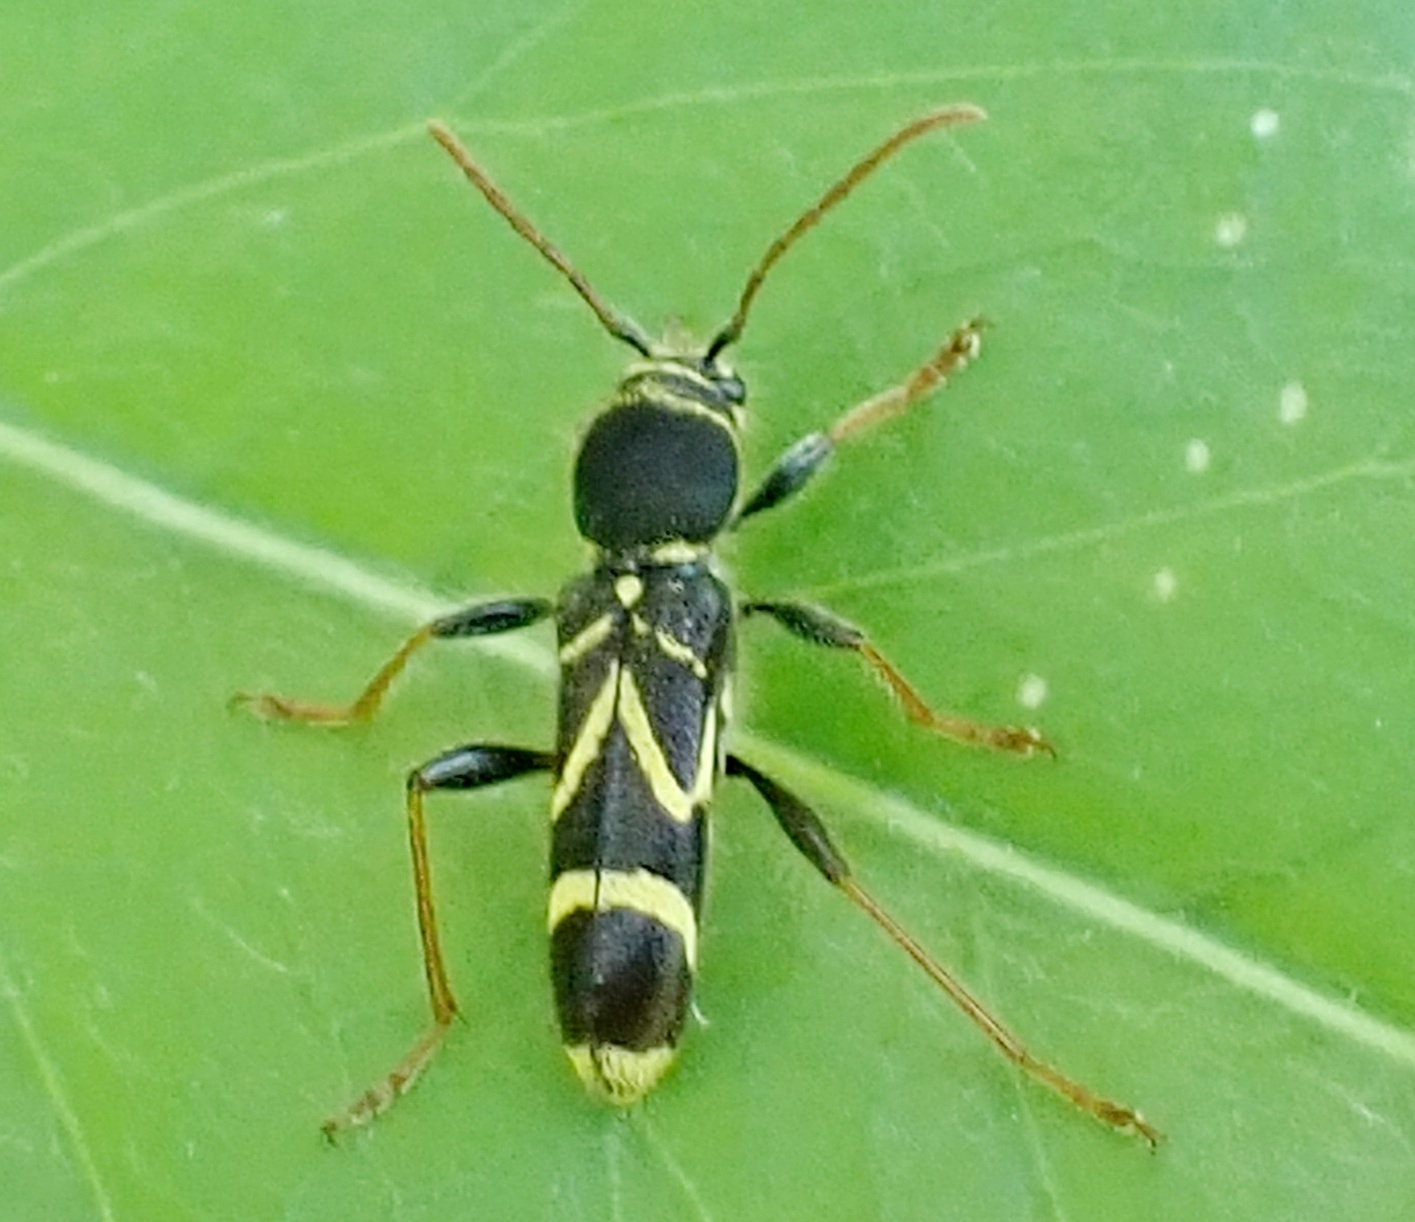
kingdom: Animalia
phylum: Arthropoda
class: Insecta
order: Coleoptera
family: Cerambycidae
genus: Cyrtoclytus
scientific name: Cyrtoclytus capra
